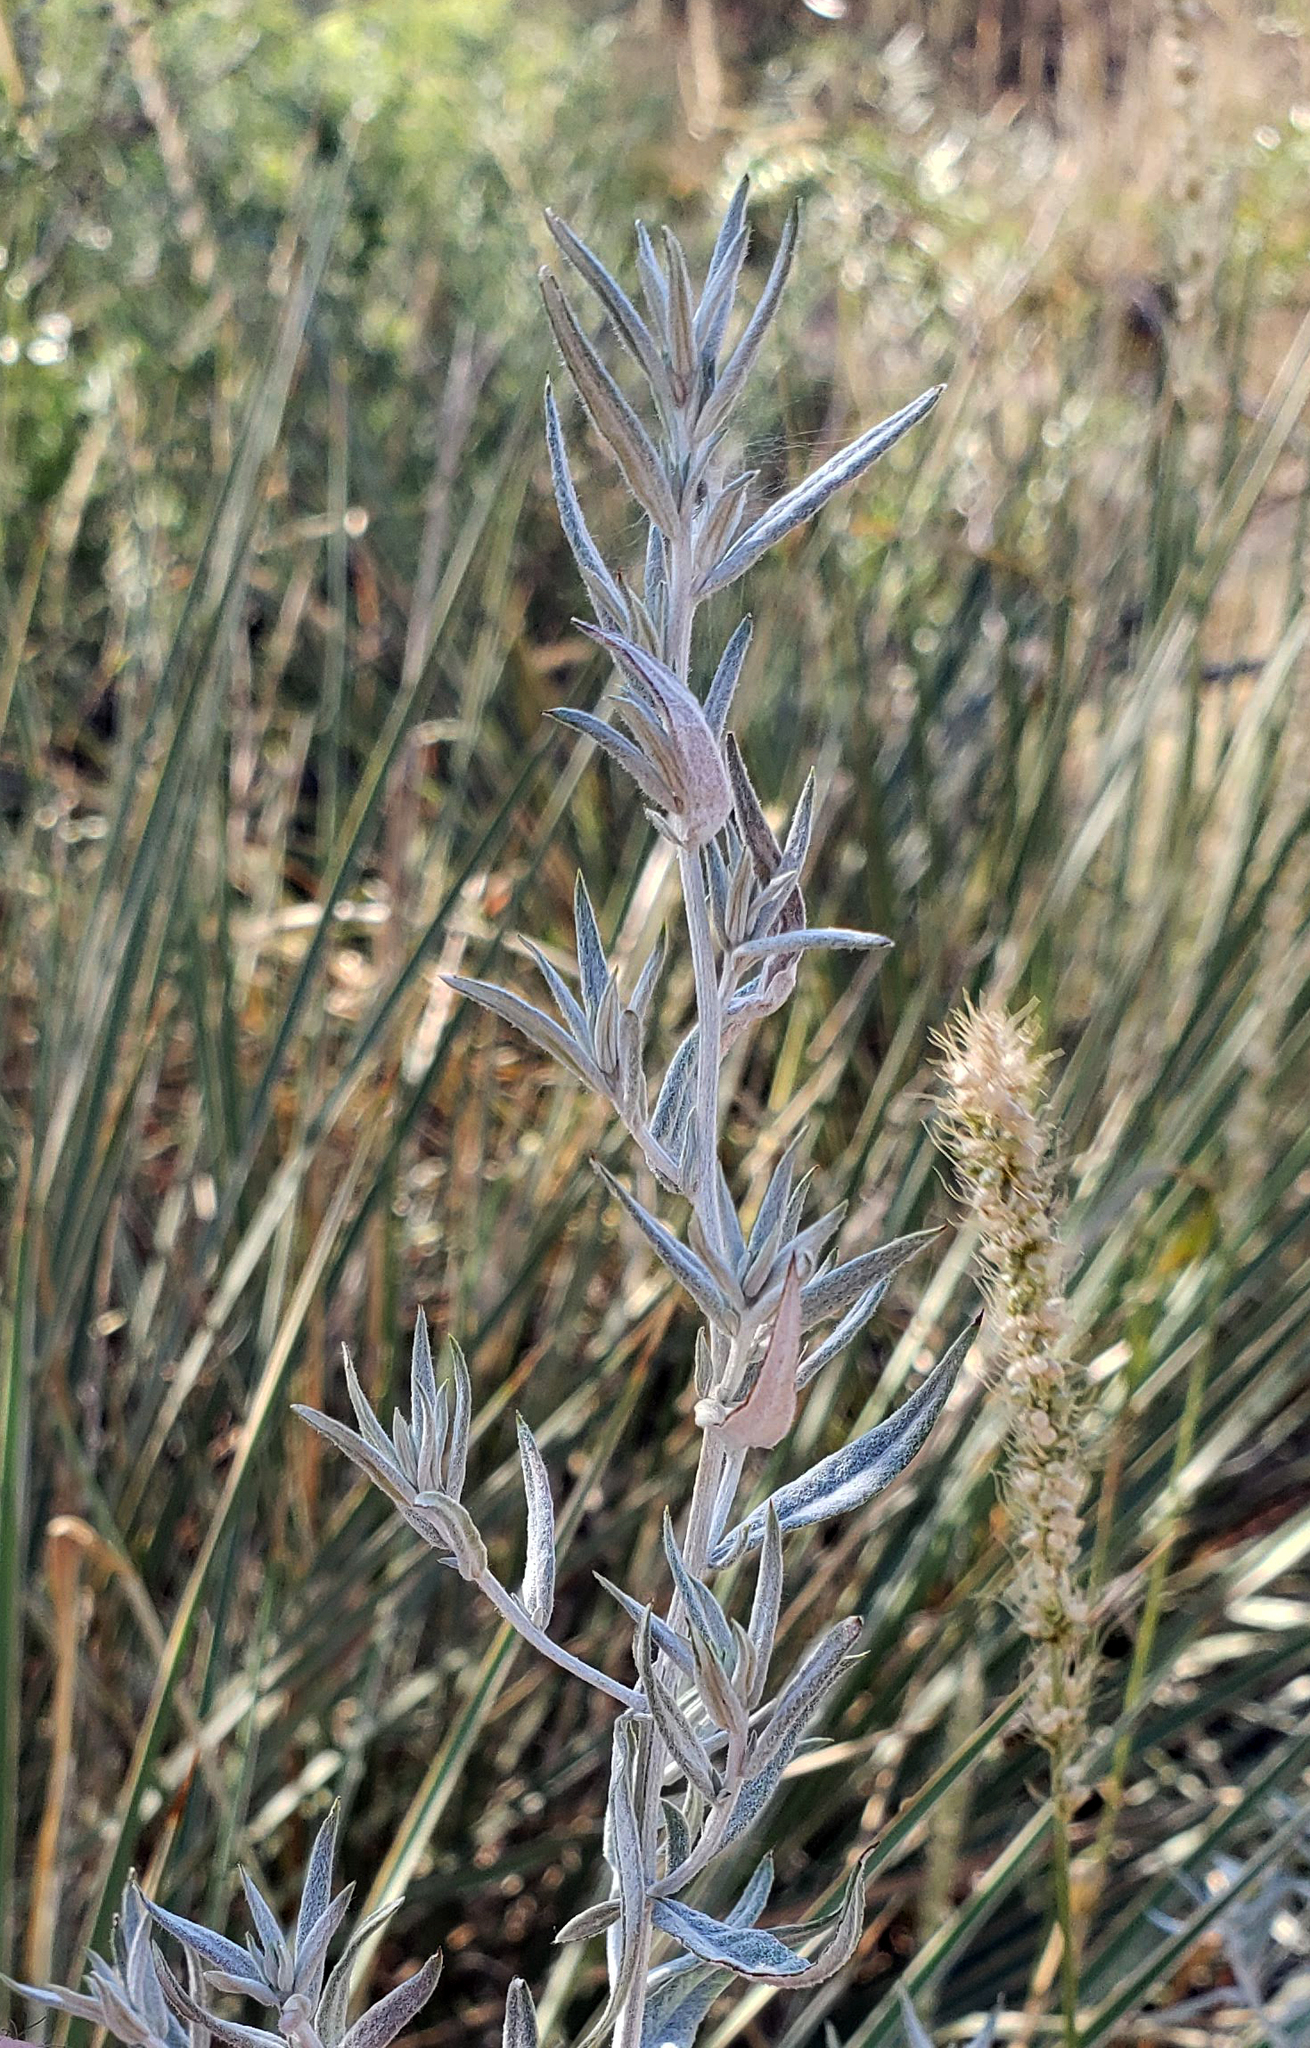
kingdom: Plantae
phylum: Tracheophyta
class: Magnoliopsida
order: Asterales
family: Asteraceae
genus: Artemisia
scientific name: Artemisia ludoviciana
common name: Western mugwort
